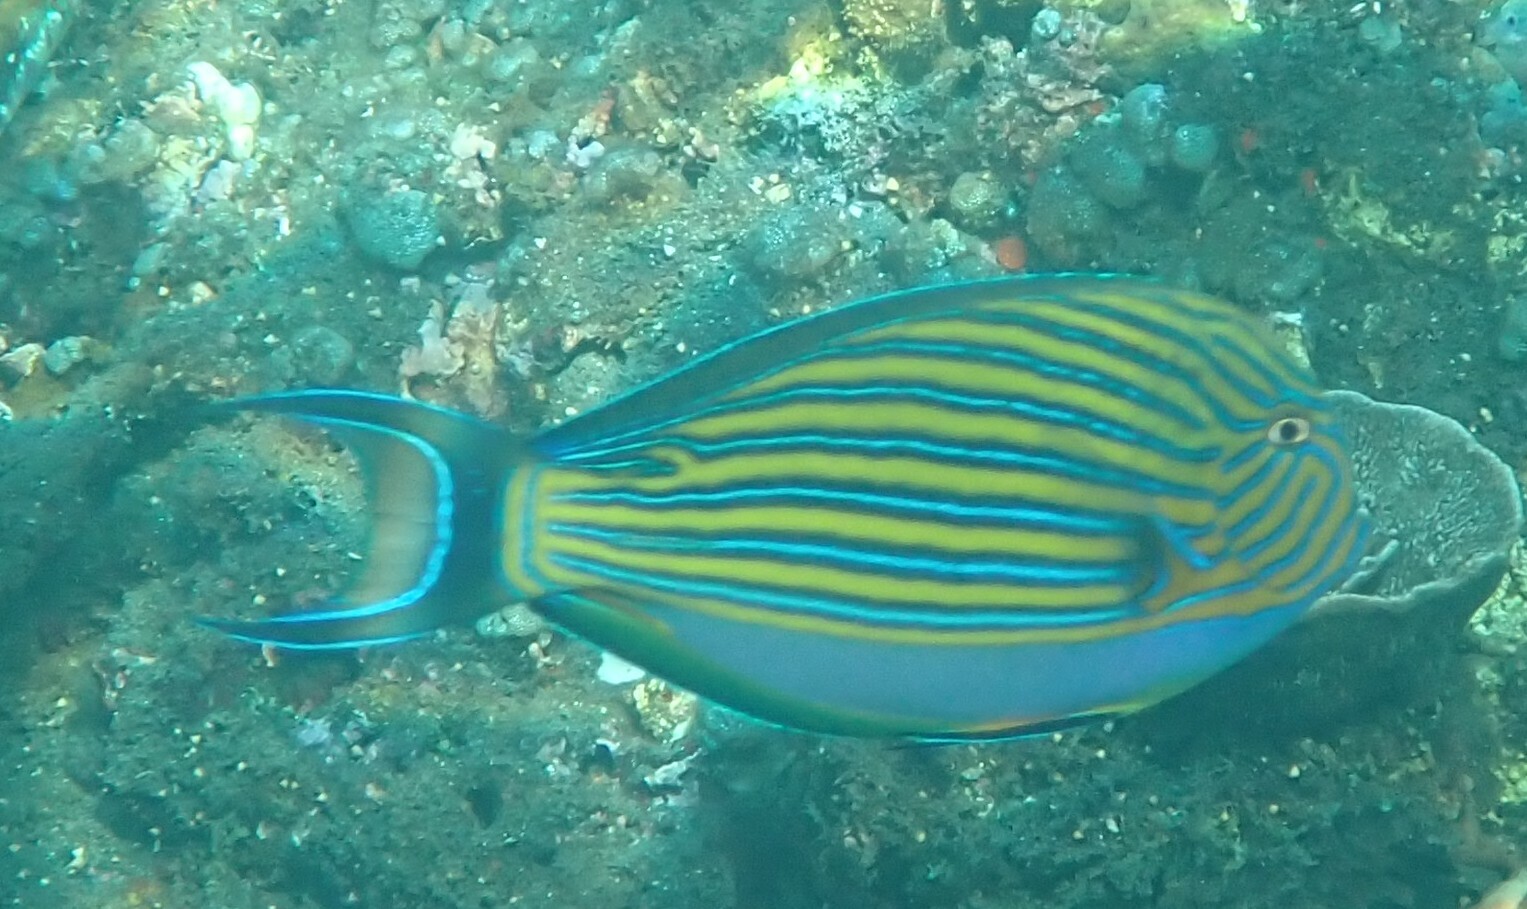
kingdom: Animalia
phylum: Chordata
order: Perciformes
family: Acanthuridae
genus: Acanthurus
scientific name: Acanthurus lineatus
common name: Striped surgeonfish
